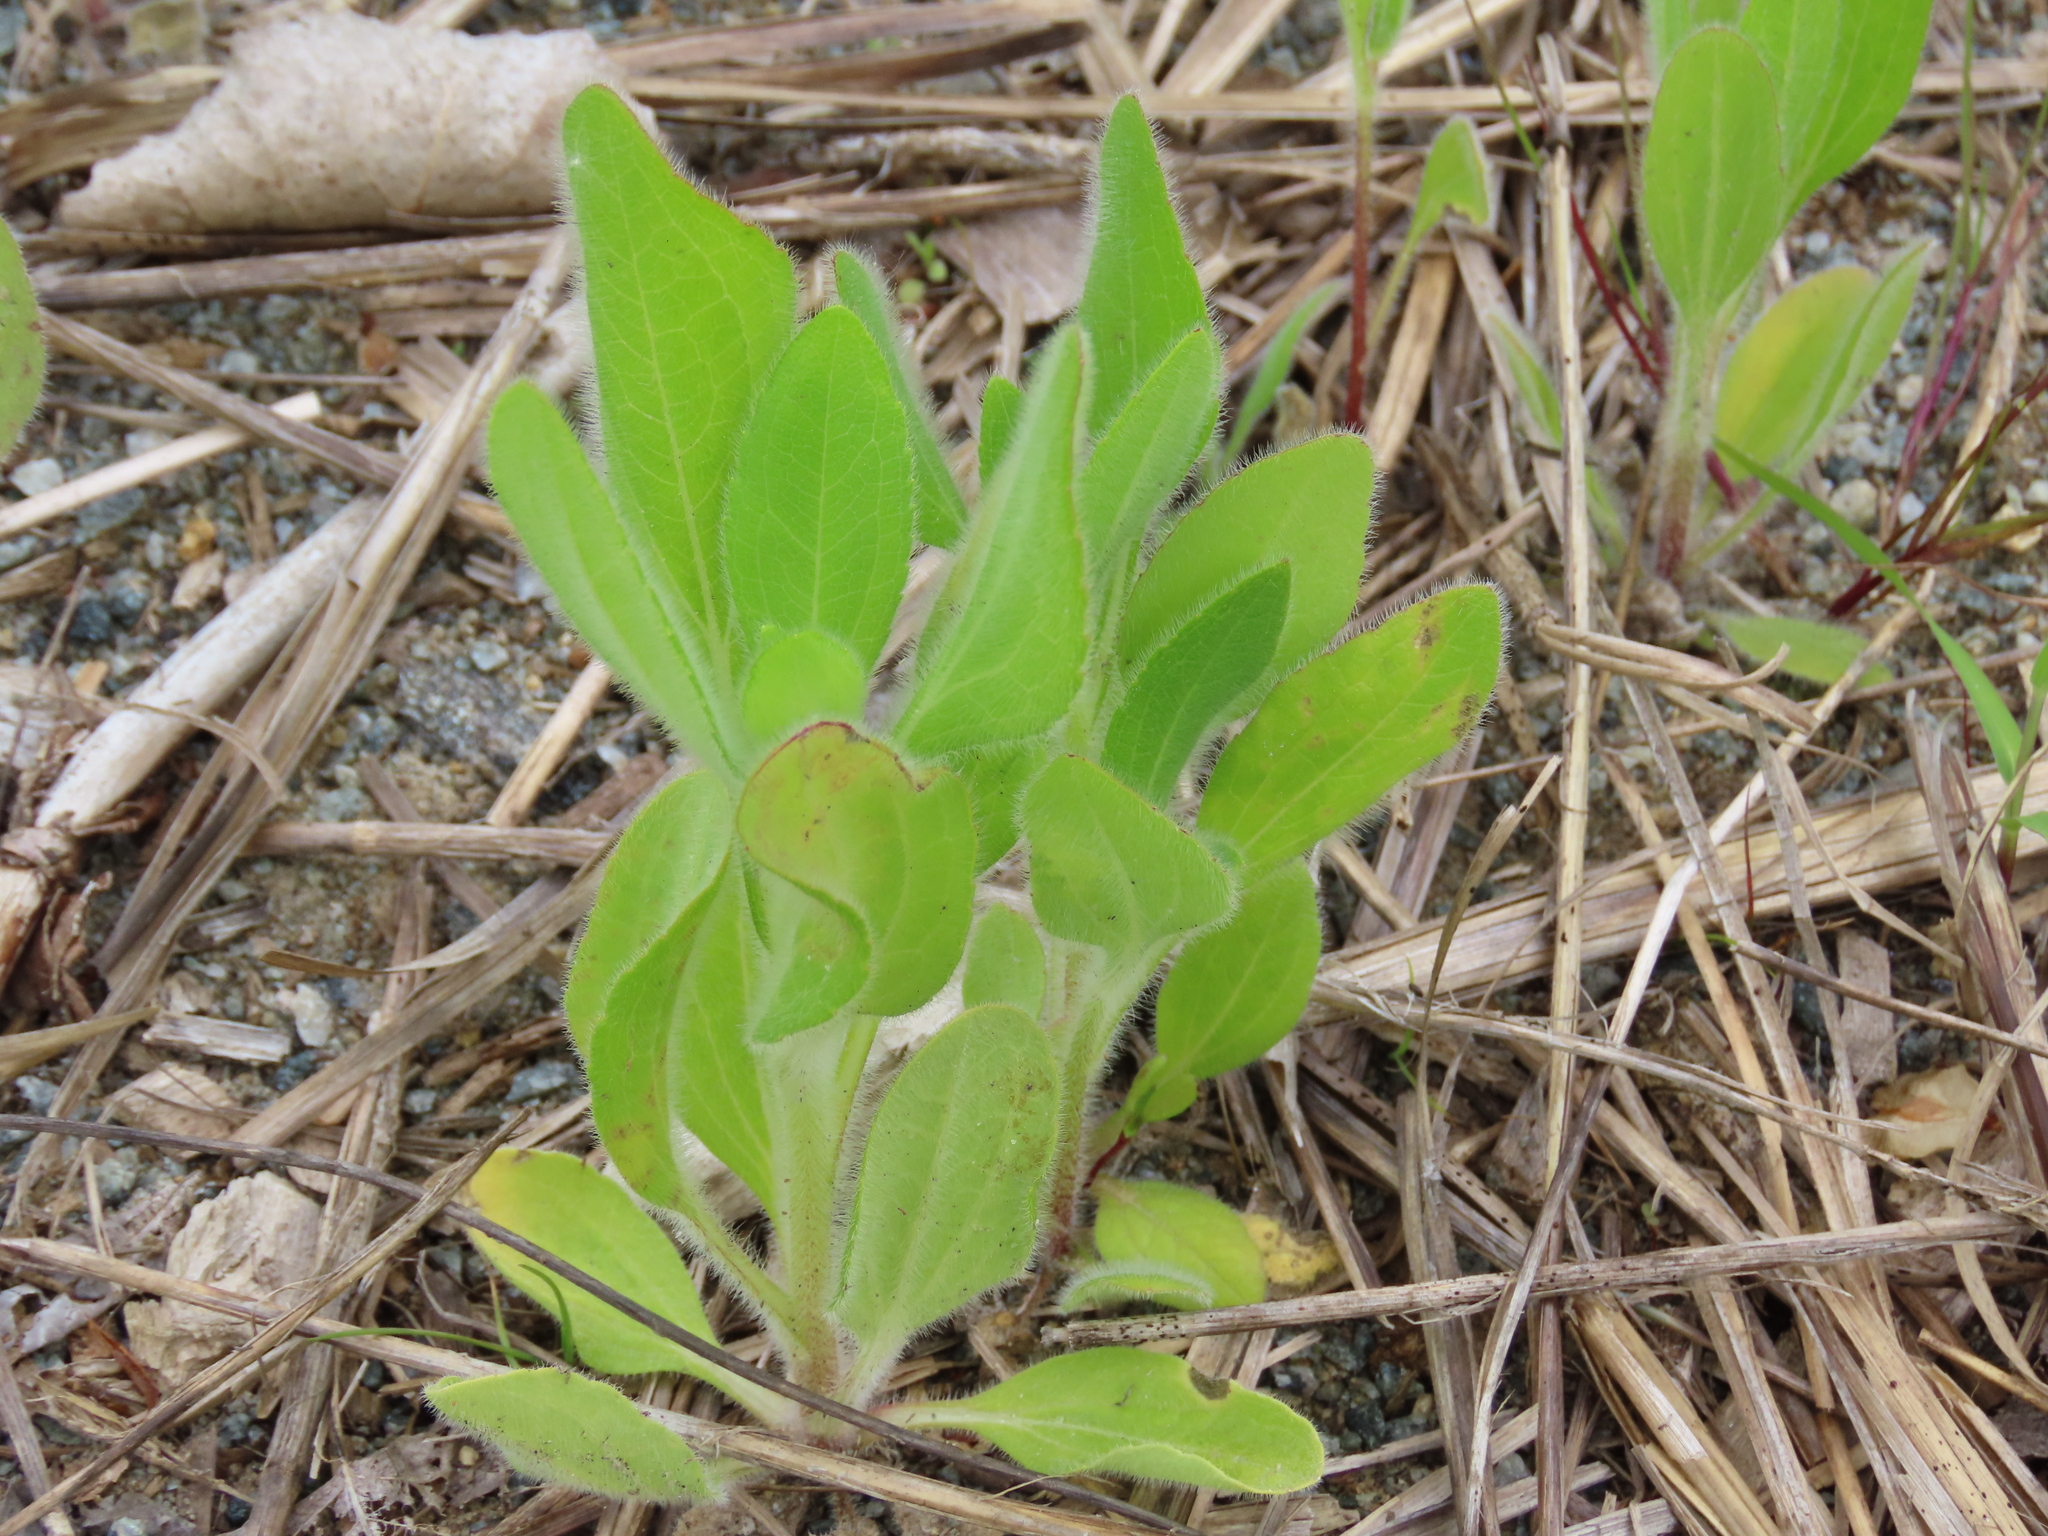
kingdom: Plantae
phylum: Tracheophyta
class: Magnoliopsida
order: Asterales
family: Asteraceae
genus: Rudbeckia
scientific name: Rudbeckia hirta
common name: Black-eyed-susan
